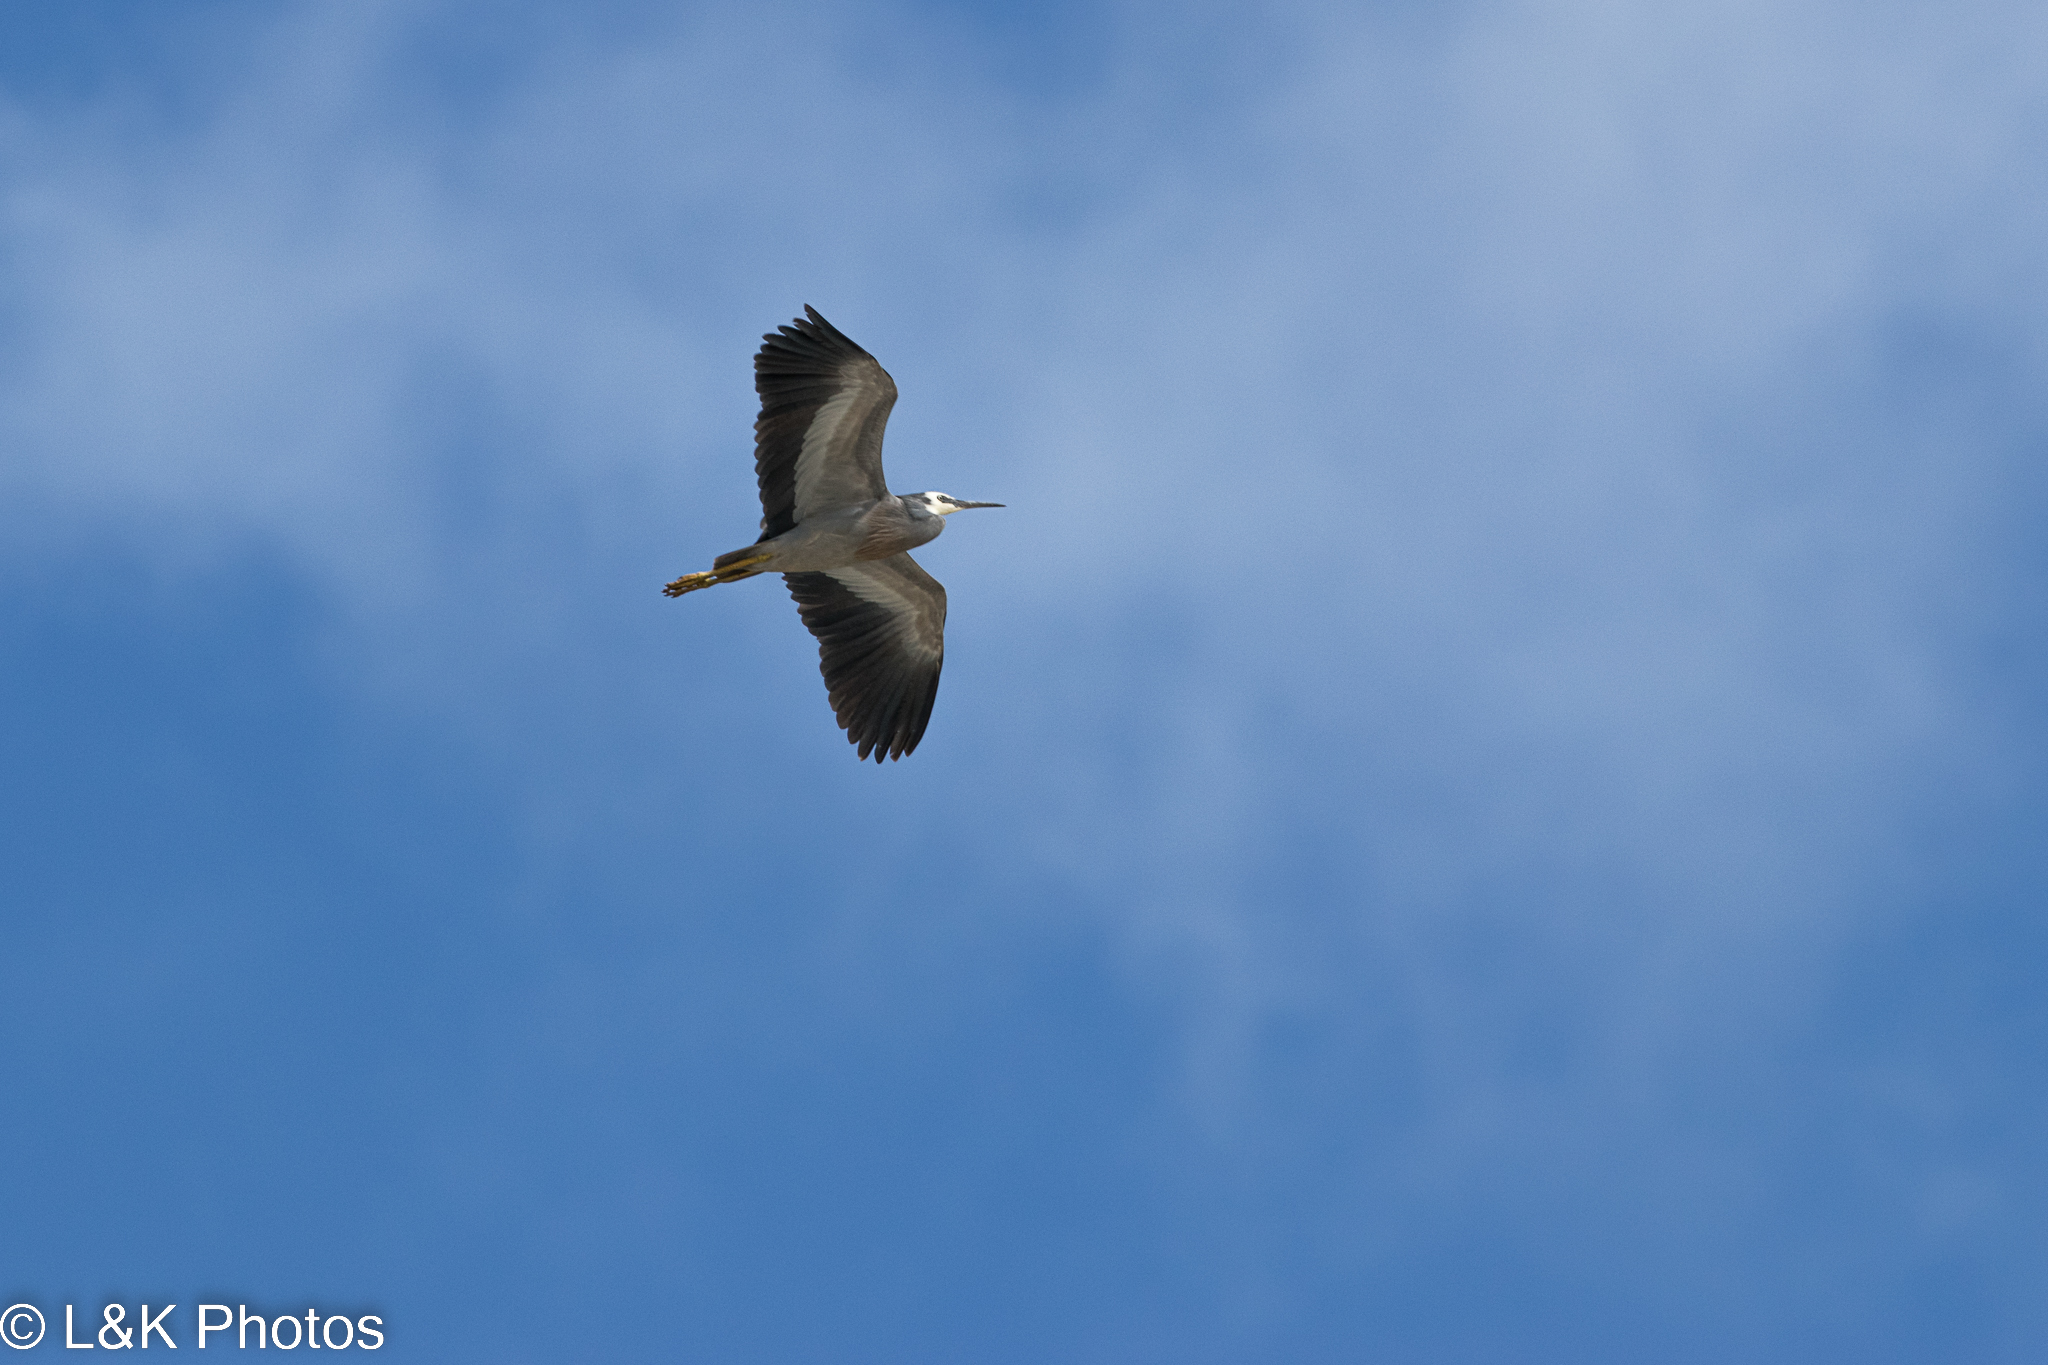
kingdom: Animalia
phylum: Chordata
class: Aves
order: Pelecaniformes
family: Ardeidae
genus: Egretta
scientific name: Egretta novaehollandiae
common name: White-faced heron
